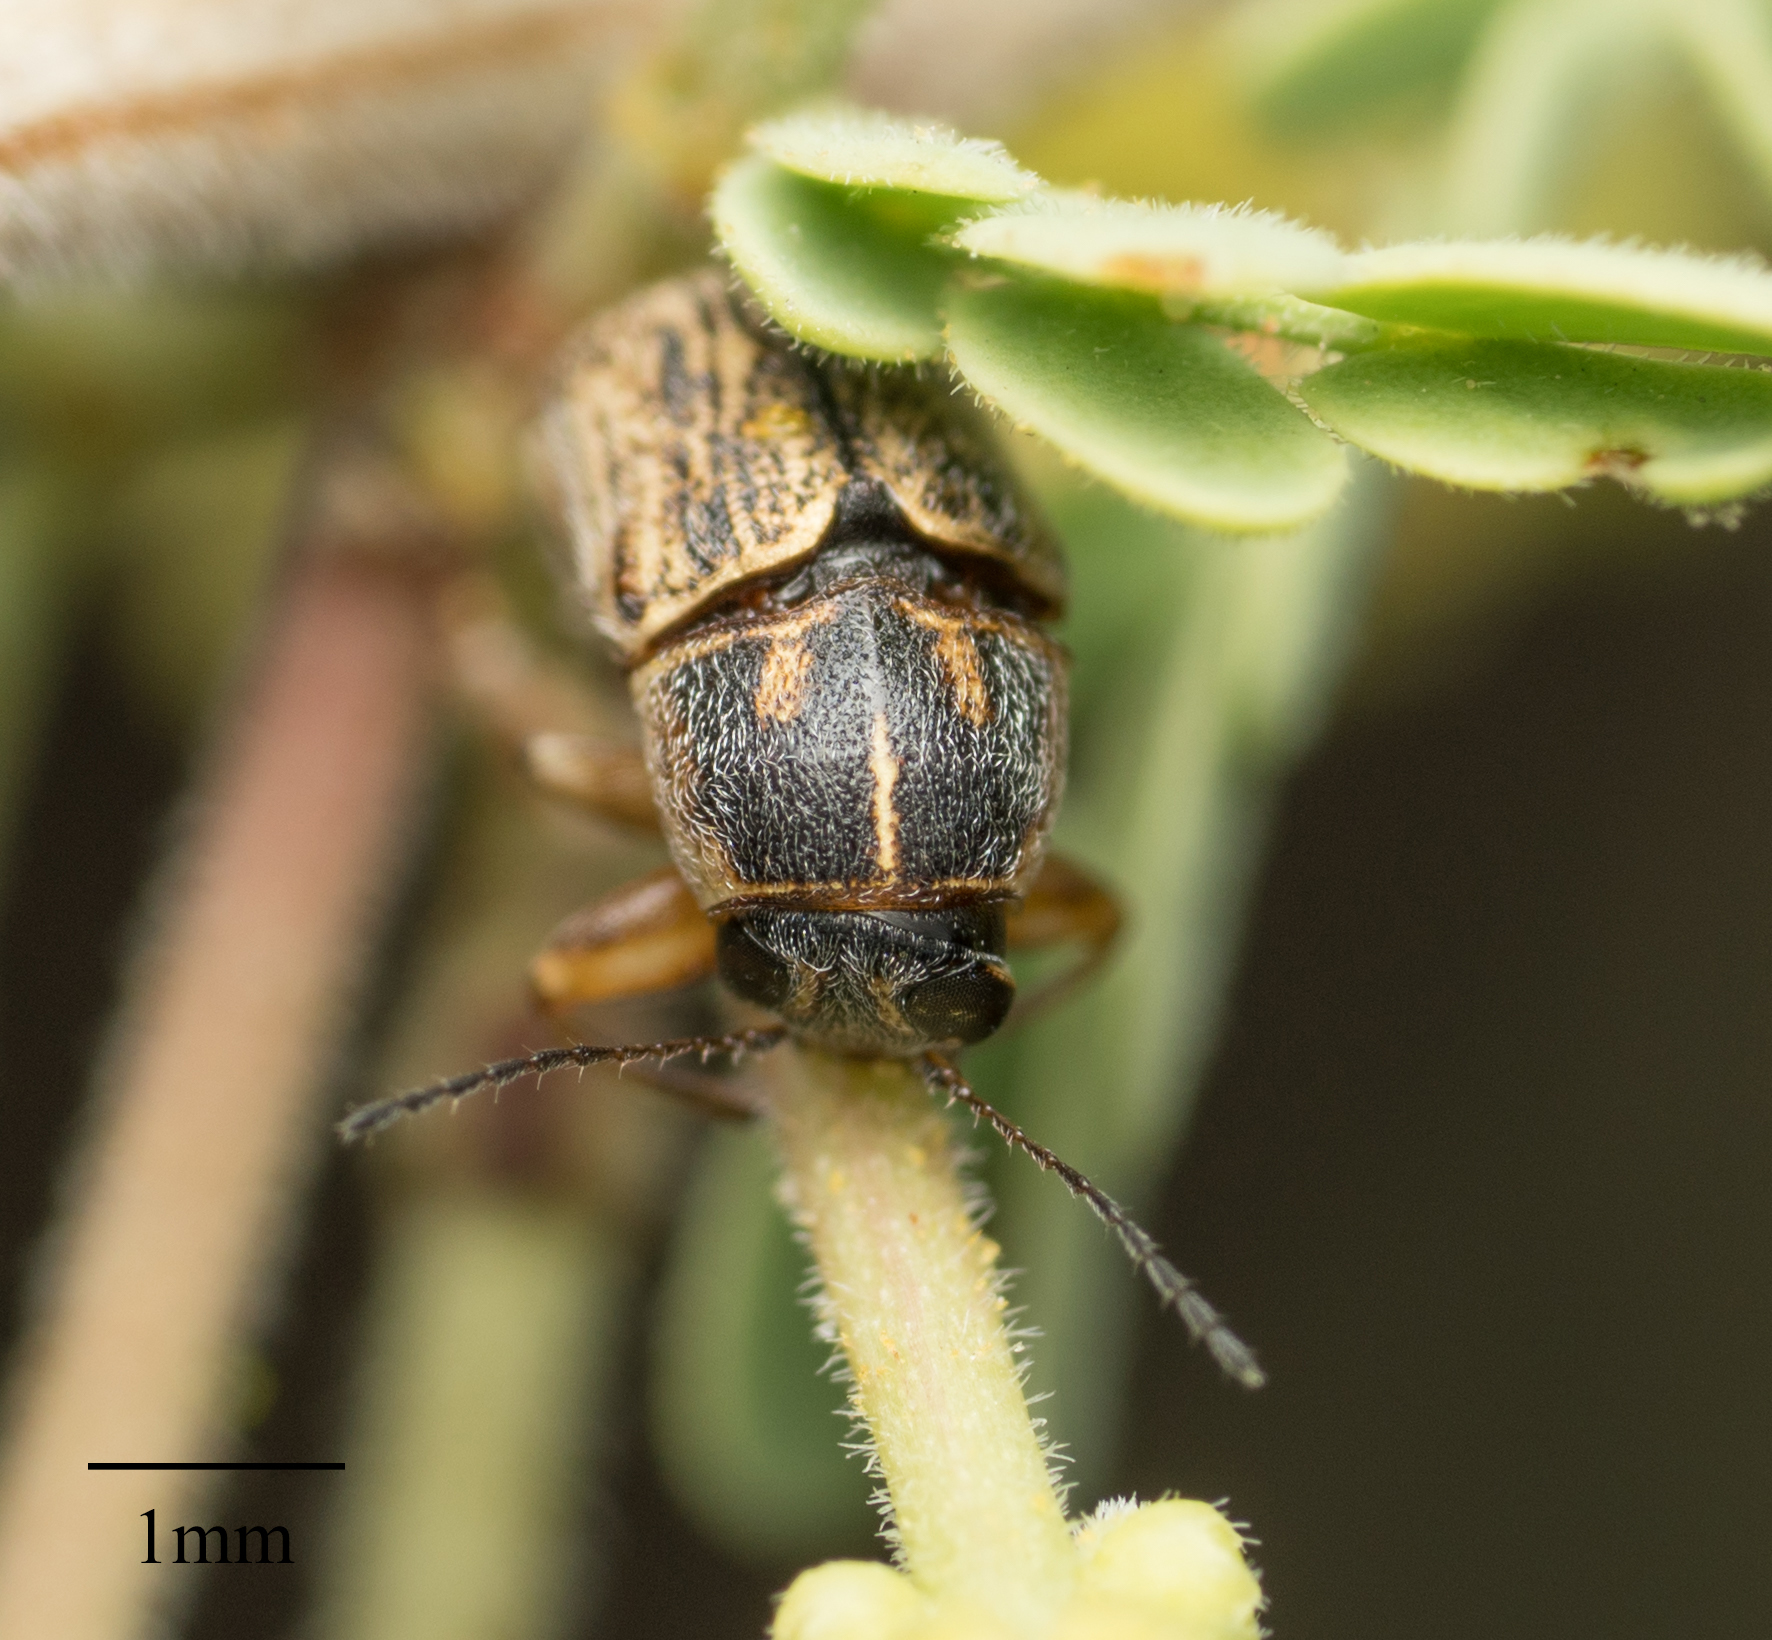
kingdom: Animalia
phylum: Arthropoda
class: Insecta
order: Coleoptera
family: Chrysomelidae
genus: Pachybrachis
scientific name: Pachybrachis marmoratus
